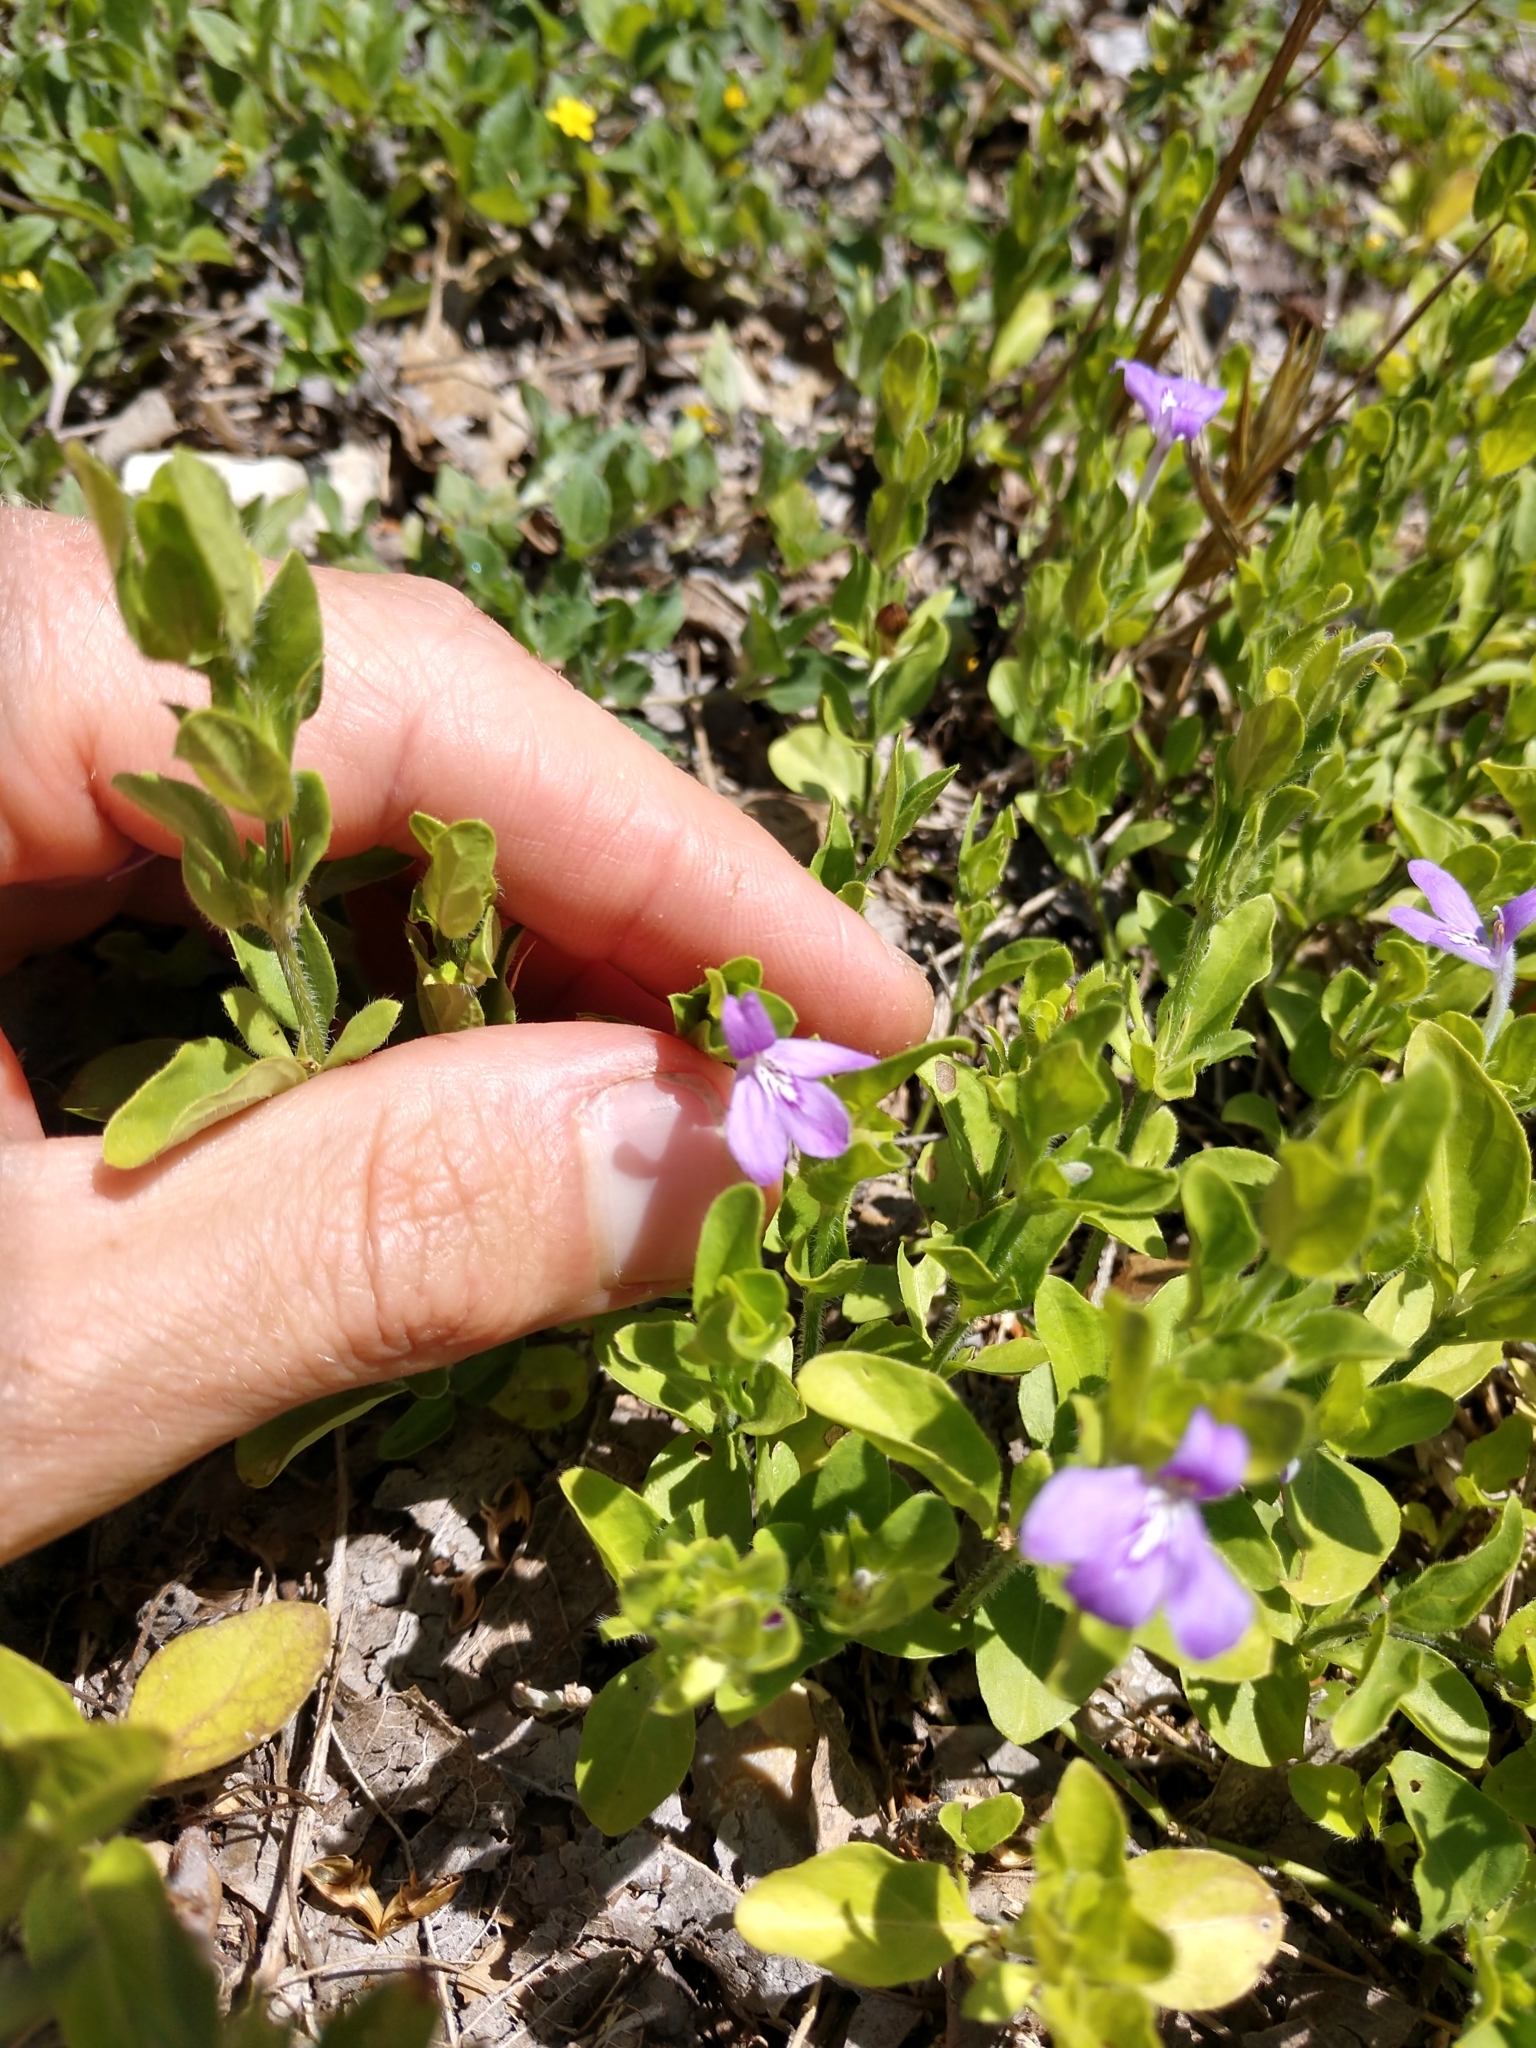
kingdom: Plantae
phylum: Tracheophyta
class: Magnoliopsida
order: Lamiales
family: Acanthaceae
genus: Justicia
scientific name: Justicia pilosella
